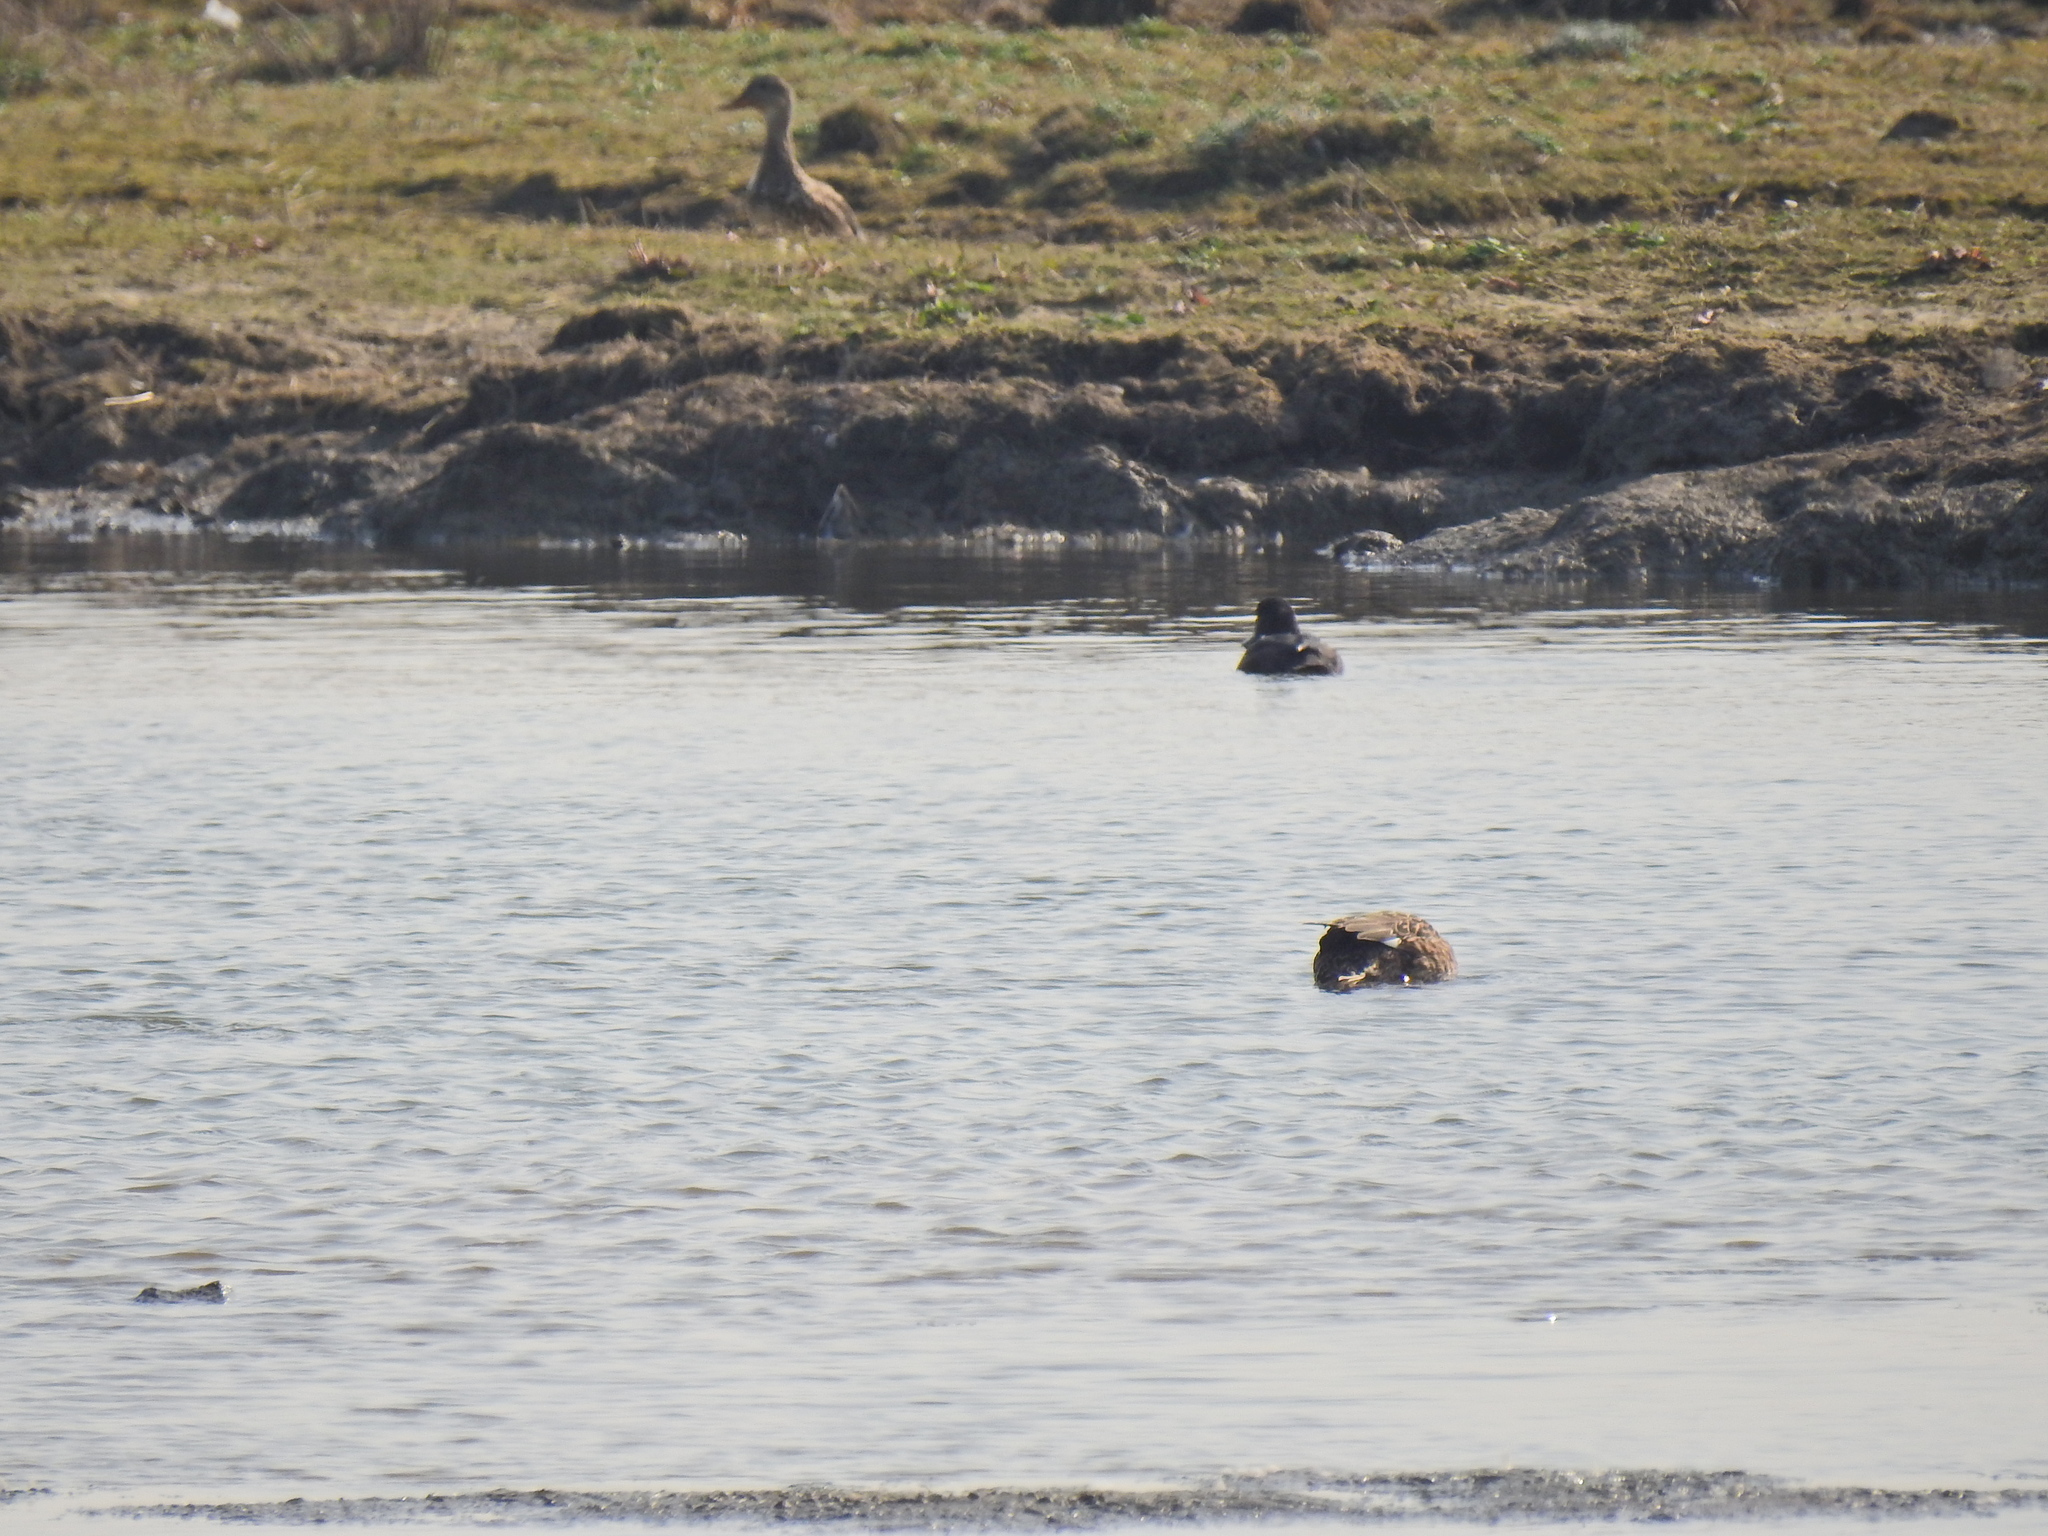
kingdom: Animalia
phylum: Chordata
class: Aves
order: Anseriformes
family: Anatidae
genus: Anas
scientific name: Anas platyrhynchos
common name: Mallard
